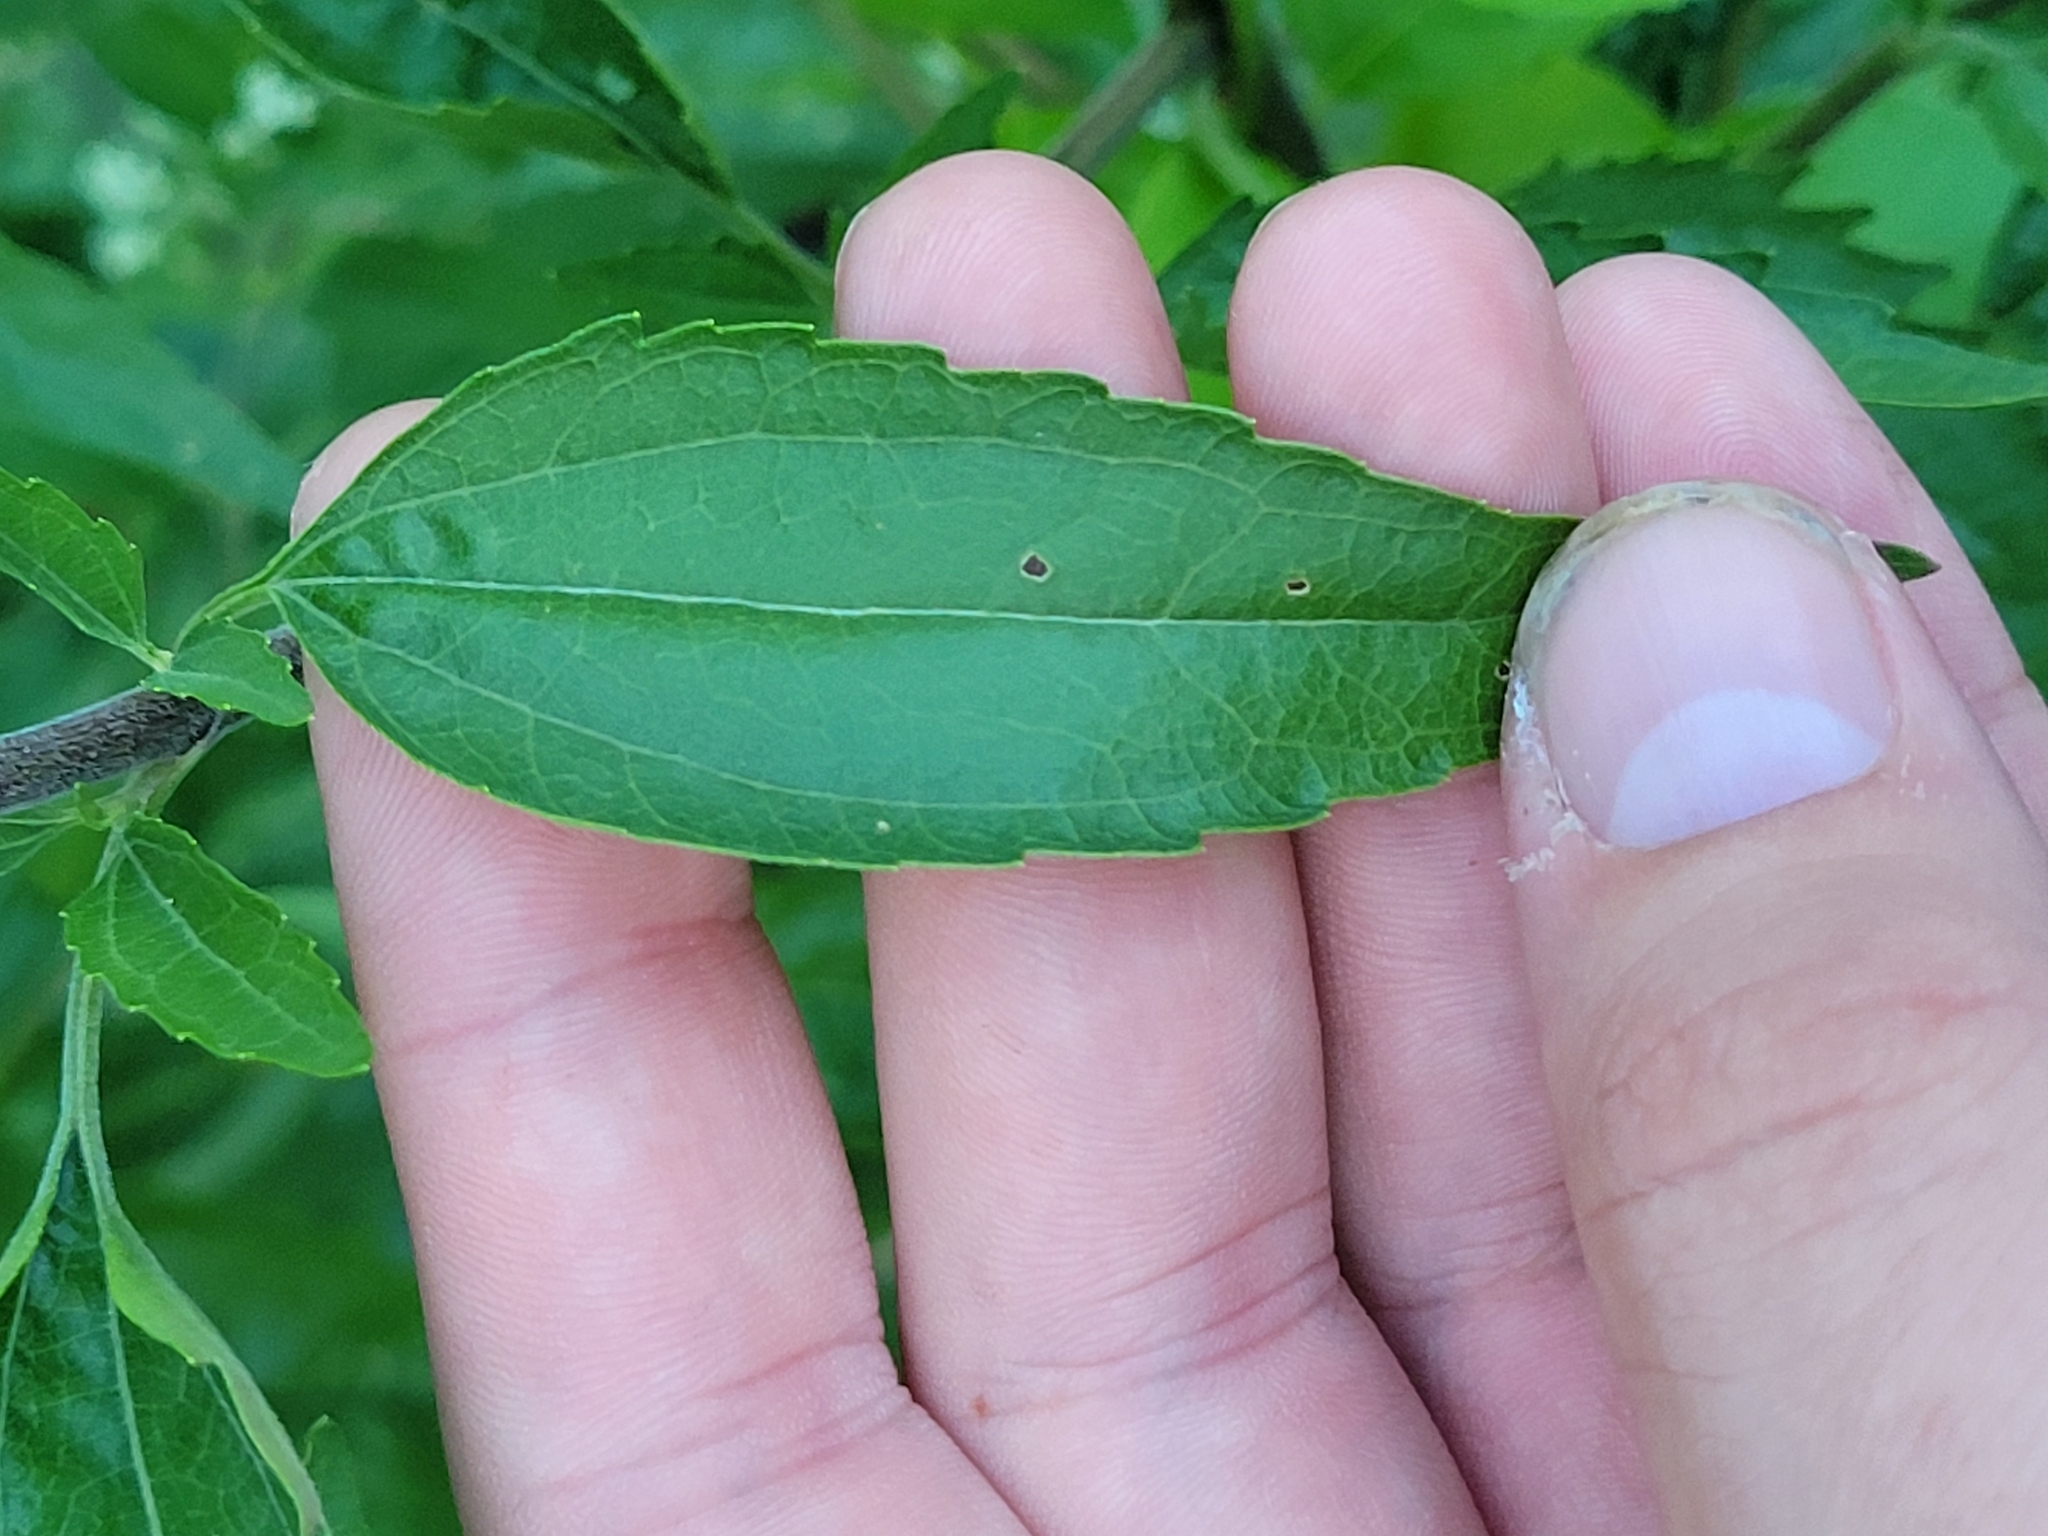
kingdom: Plantae
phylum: Tracheophyta
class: Magnoliopsida
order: Asterales
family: Asteraceae
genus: Eupatorium
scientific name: Eupatorium serotinum
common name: Late boneset
